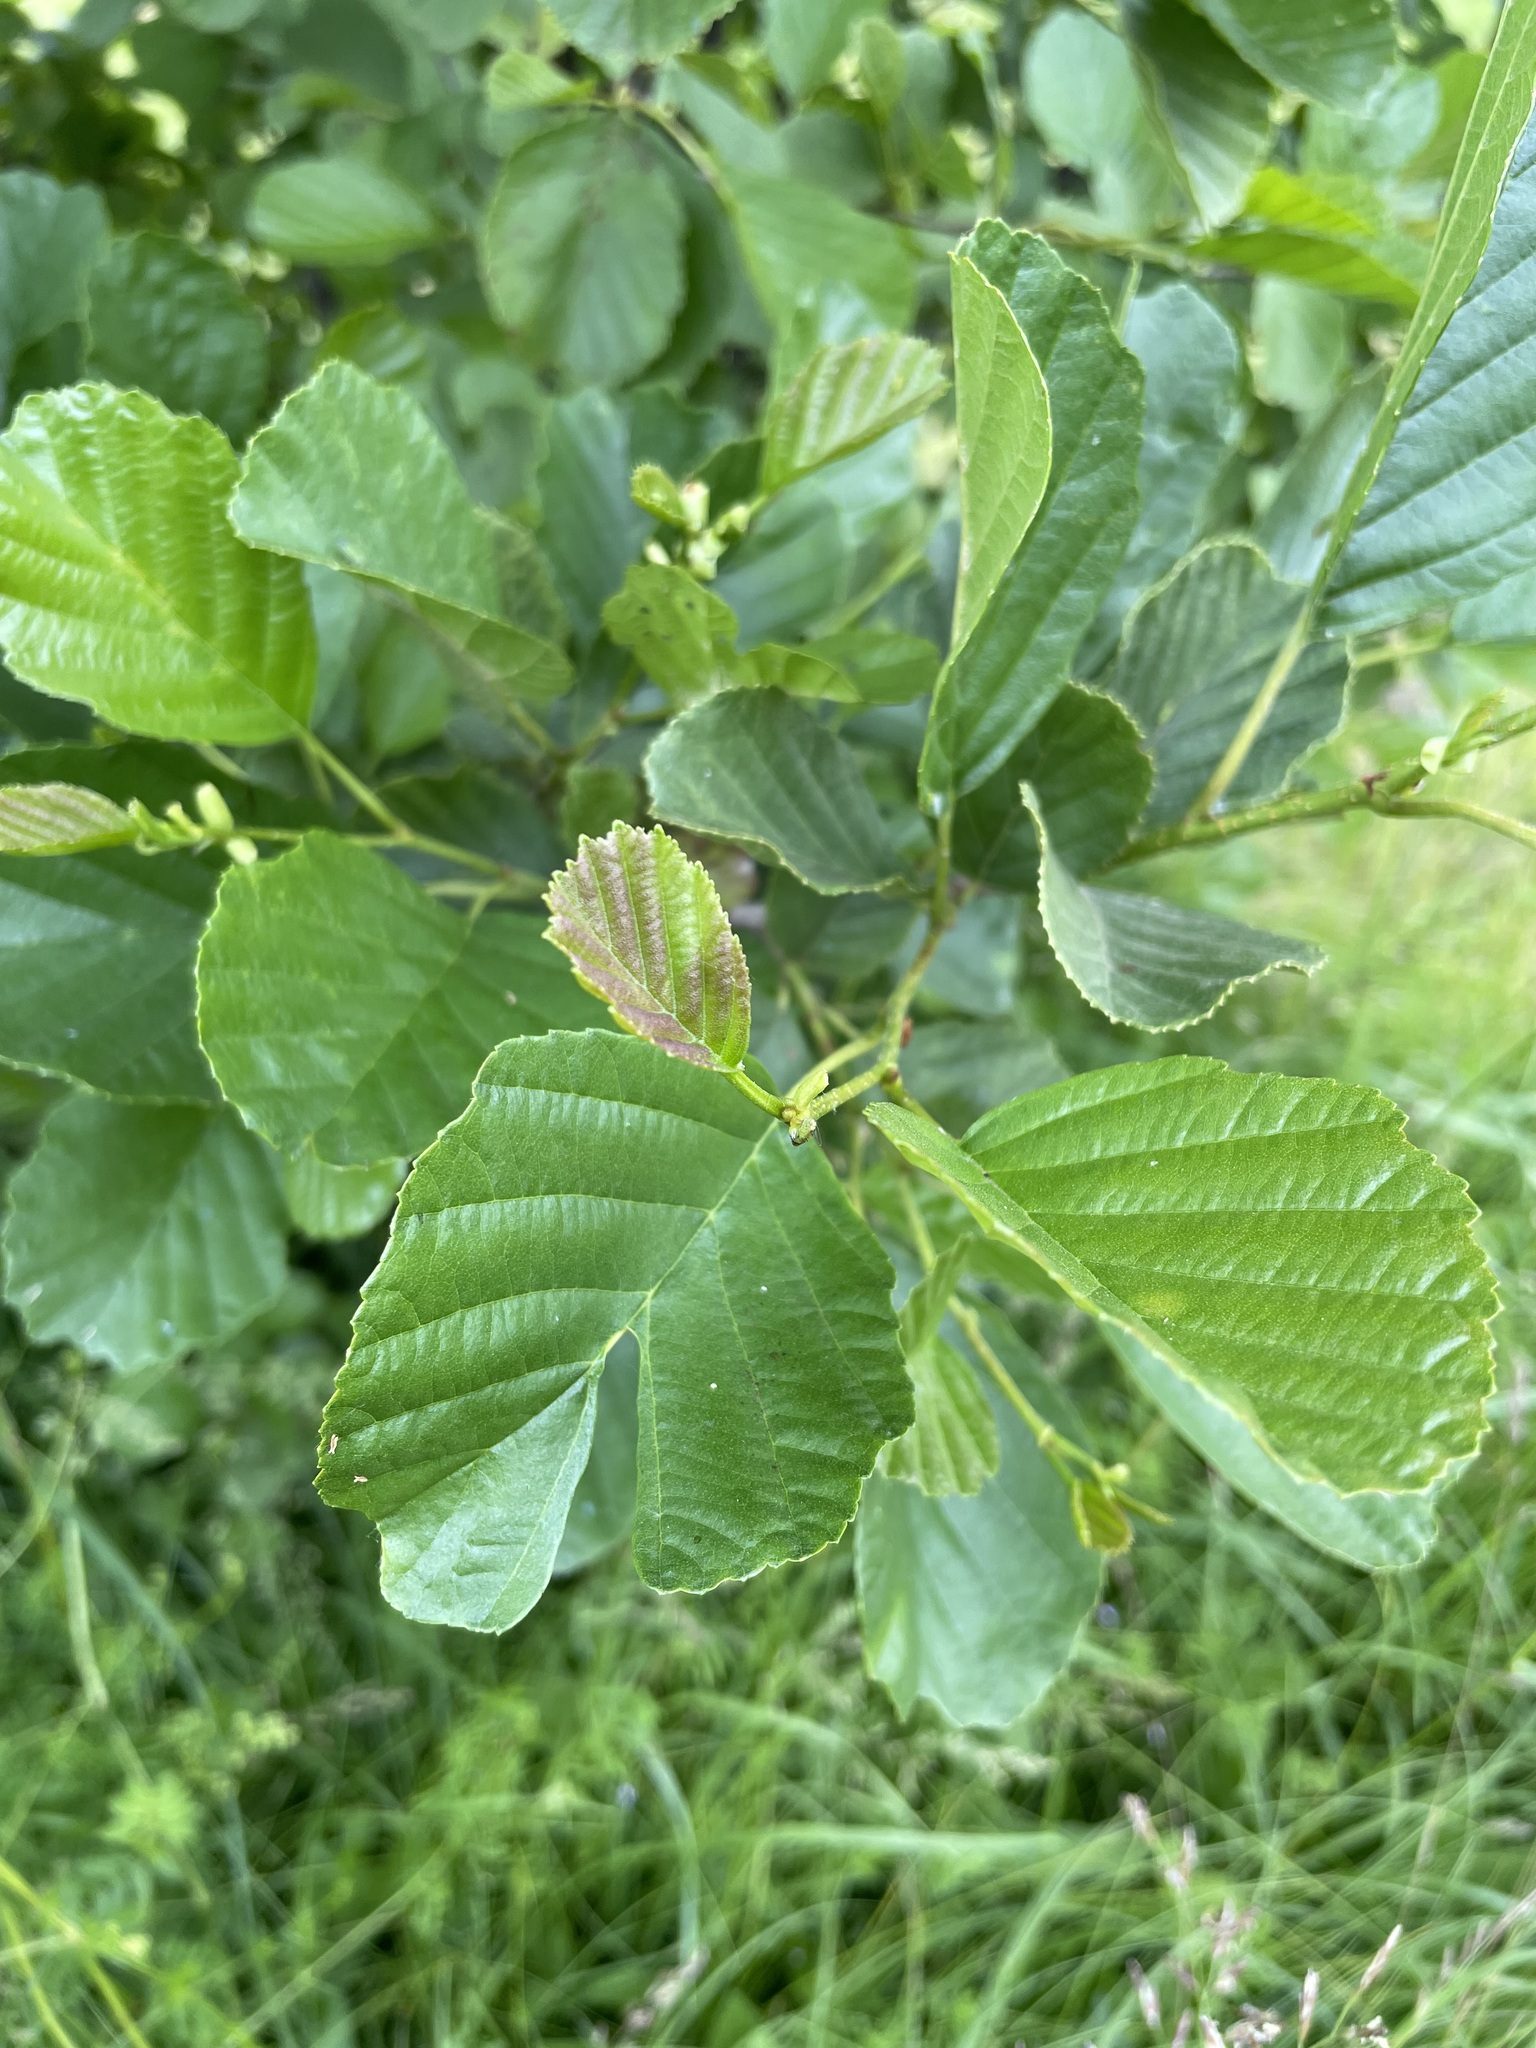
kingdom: Plantae
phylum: Tracheophyta
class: Magnoliopsida
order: Fagales
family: Betulaceae
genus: Alnus
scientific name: Alnus glutinosa
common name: Black alder
